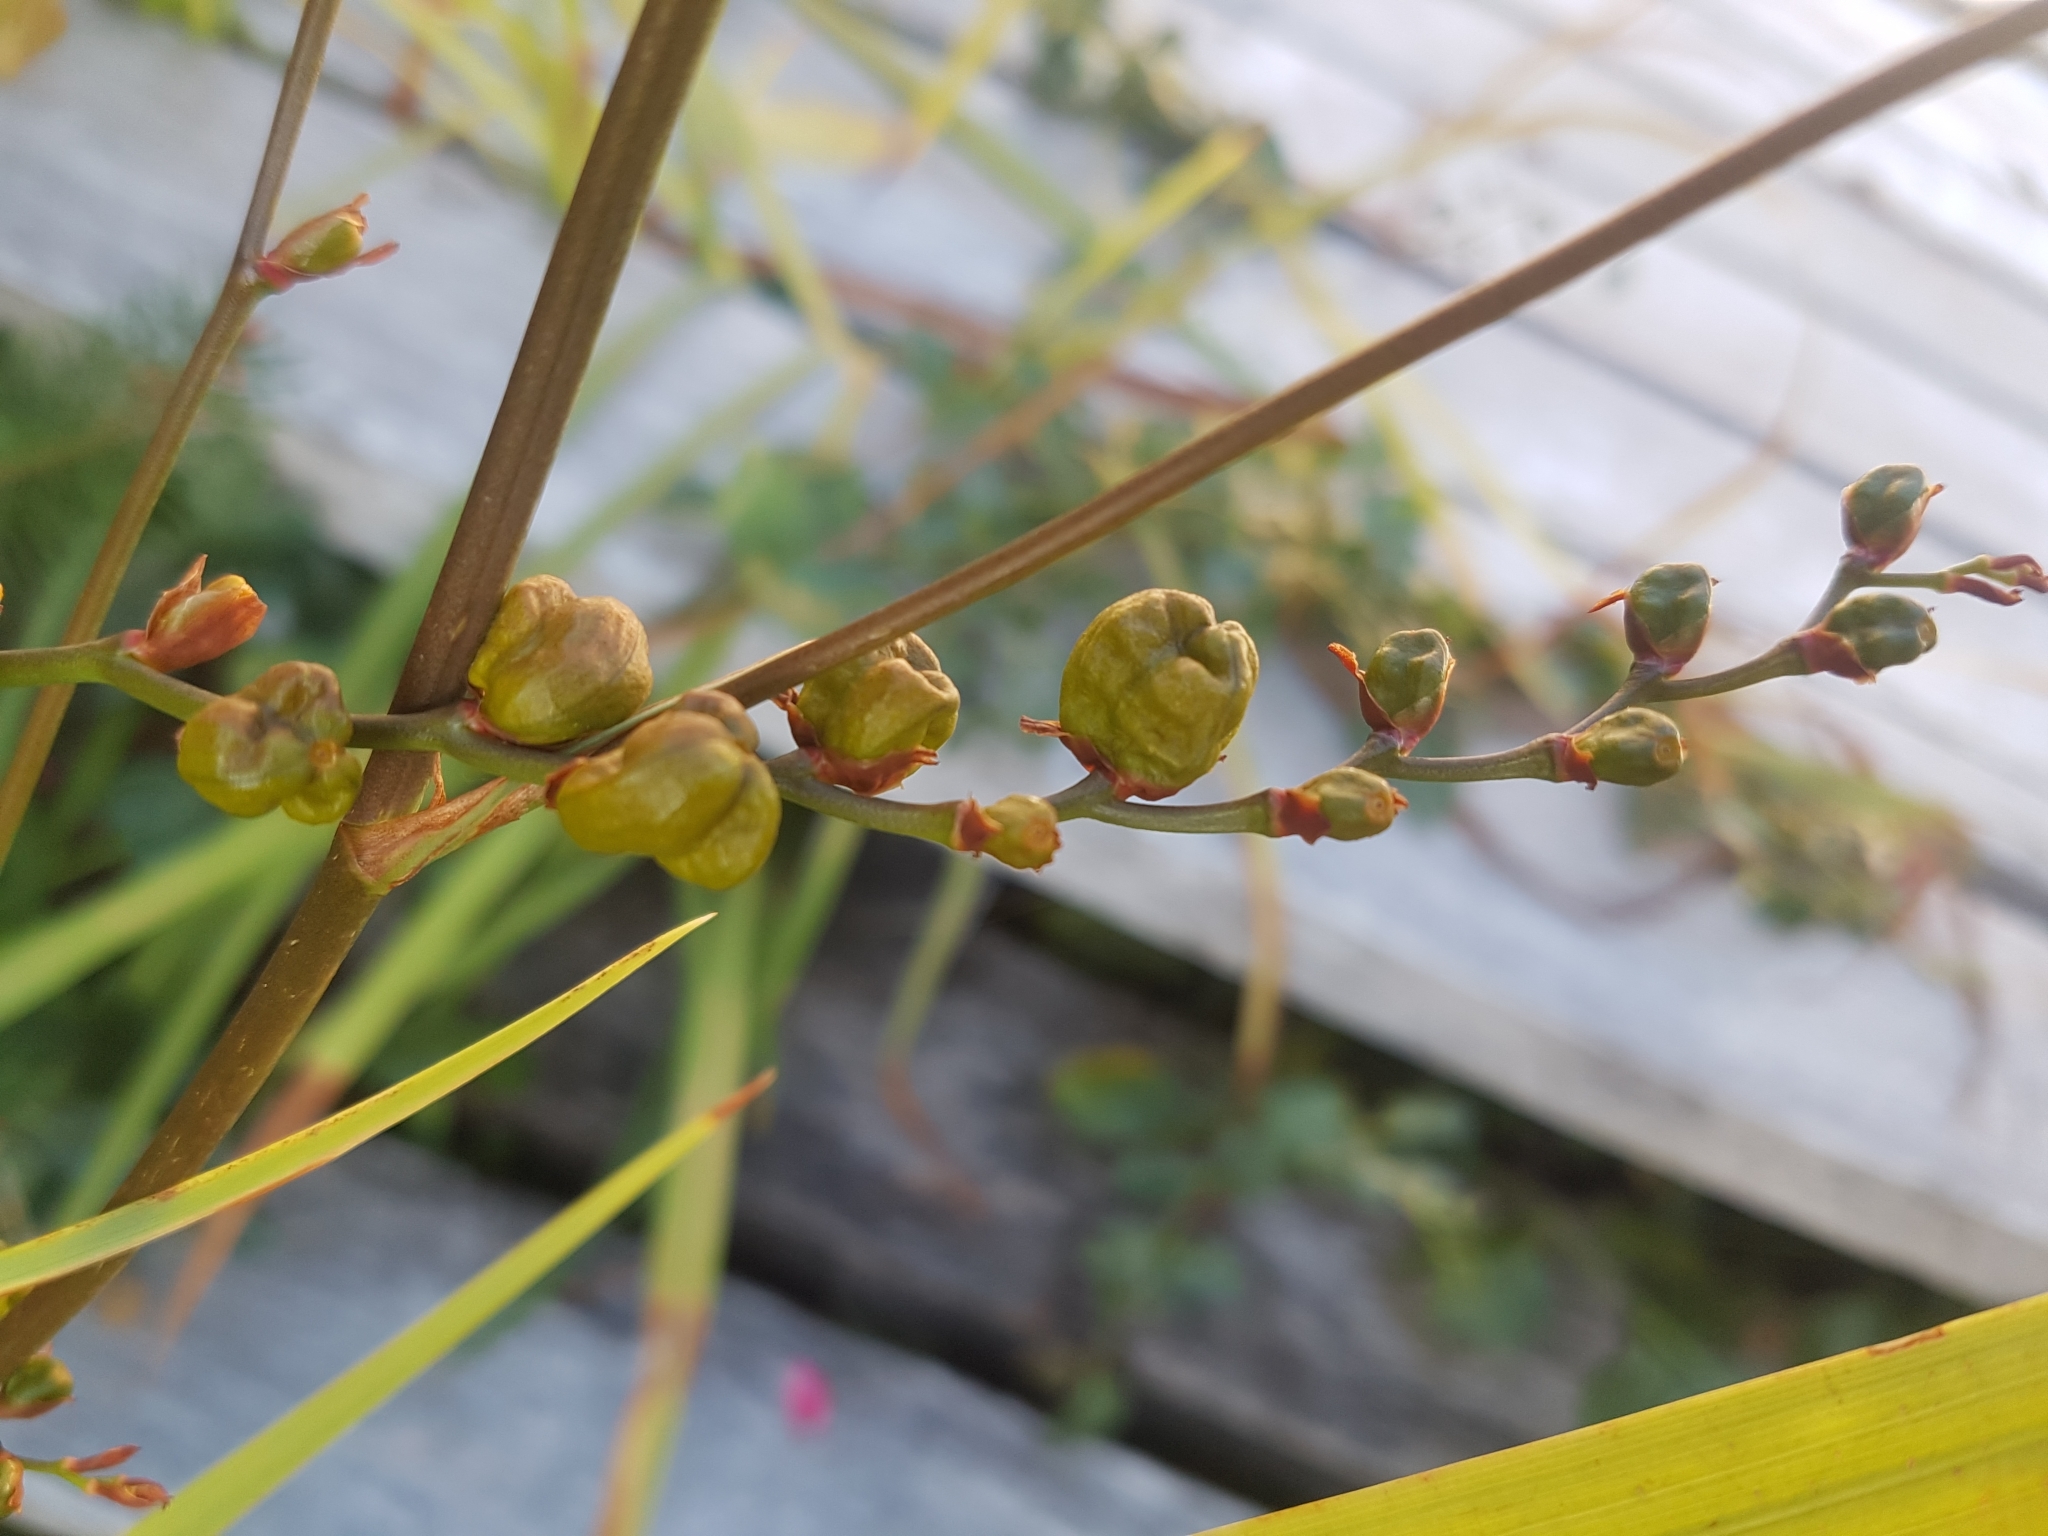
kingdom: Plantae
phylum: Tracheophyta
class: Liliopsida
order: Asparagales
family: Iridaceae
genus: Crocosmia
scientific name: Crocosmia crocosmiiflora
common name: Montbretia
